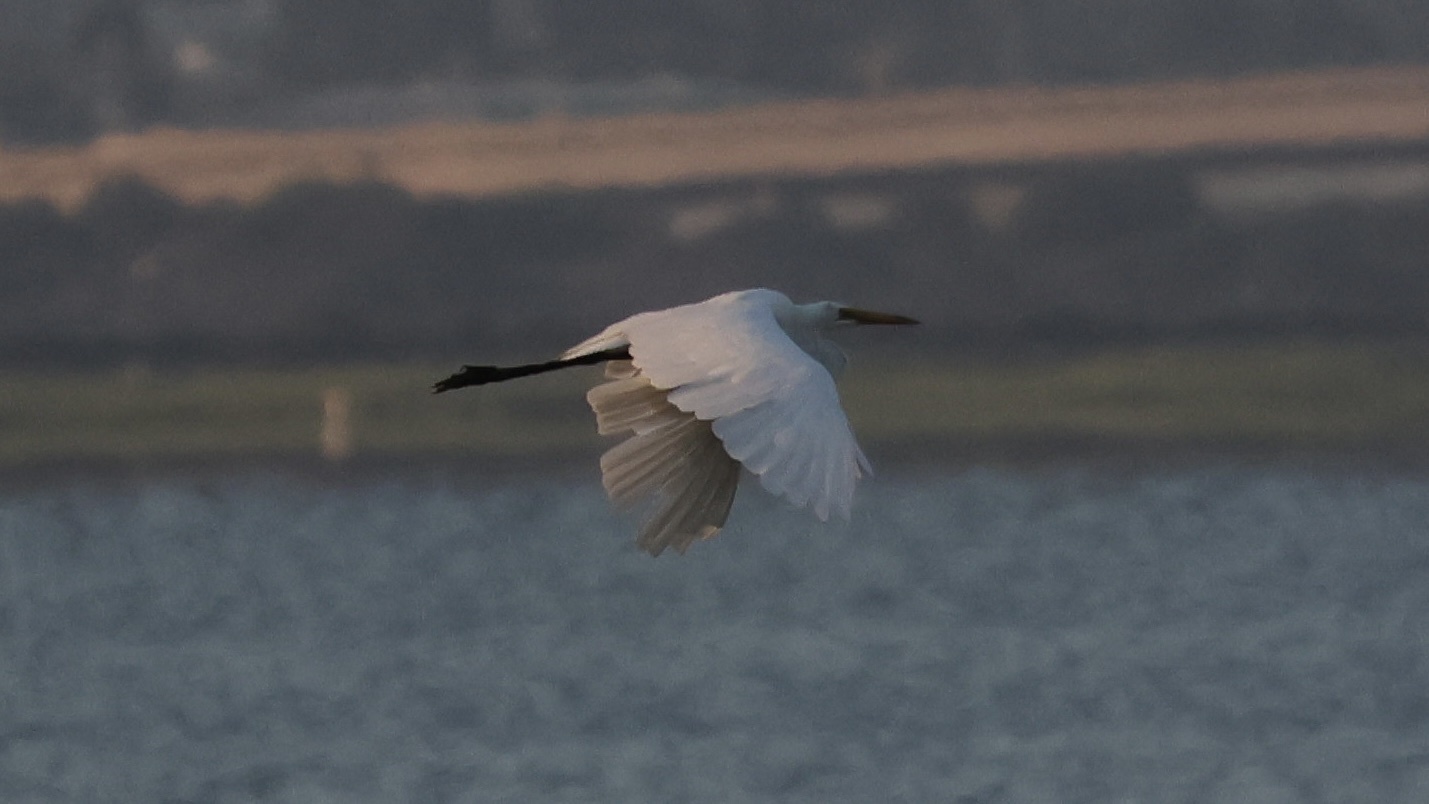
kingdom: Animalia
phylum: Chordata
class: Aves
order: Pelecaniformes
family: Ardeidae
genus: Ardea
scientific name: Ardea alba
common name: Great egret
